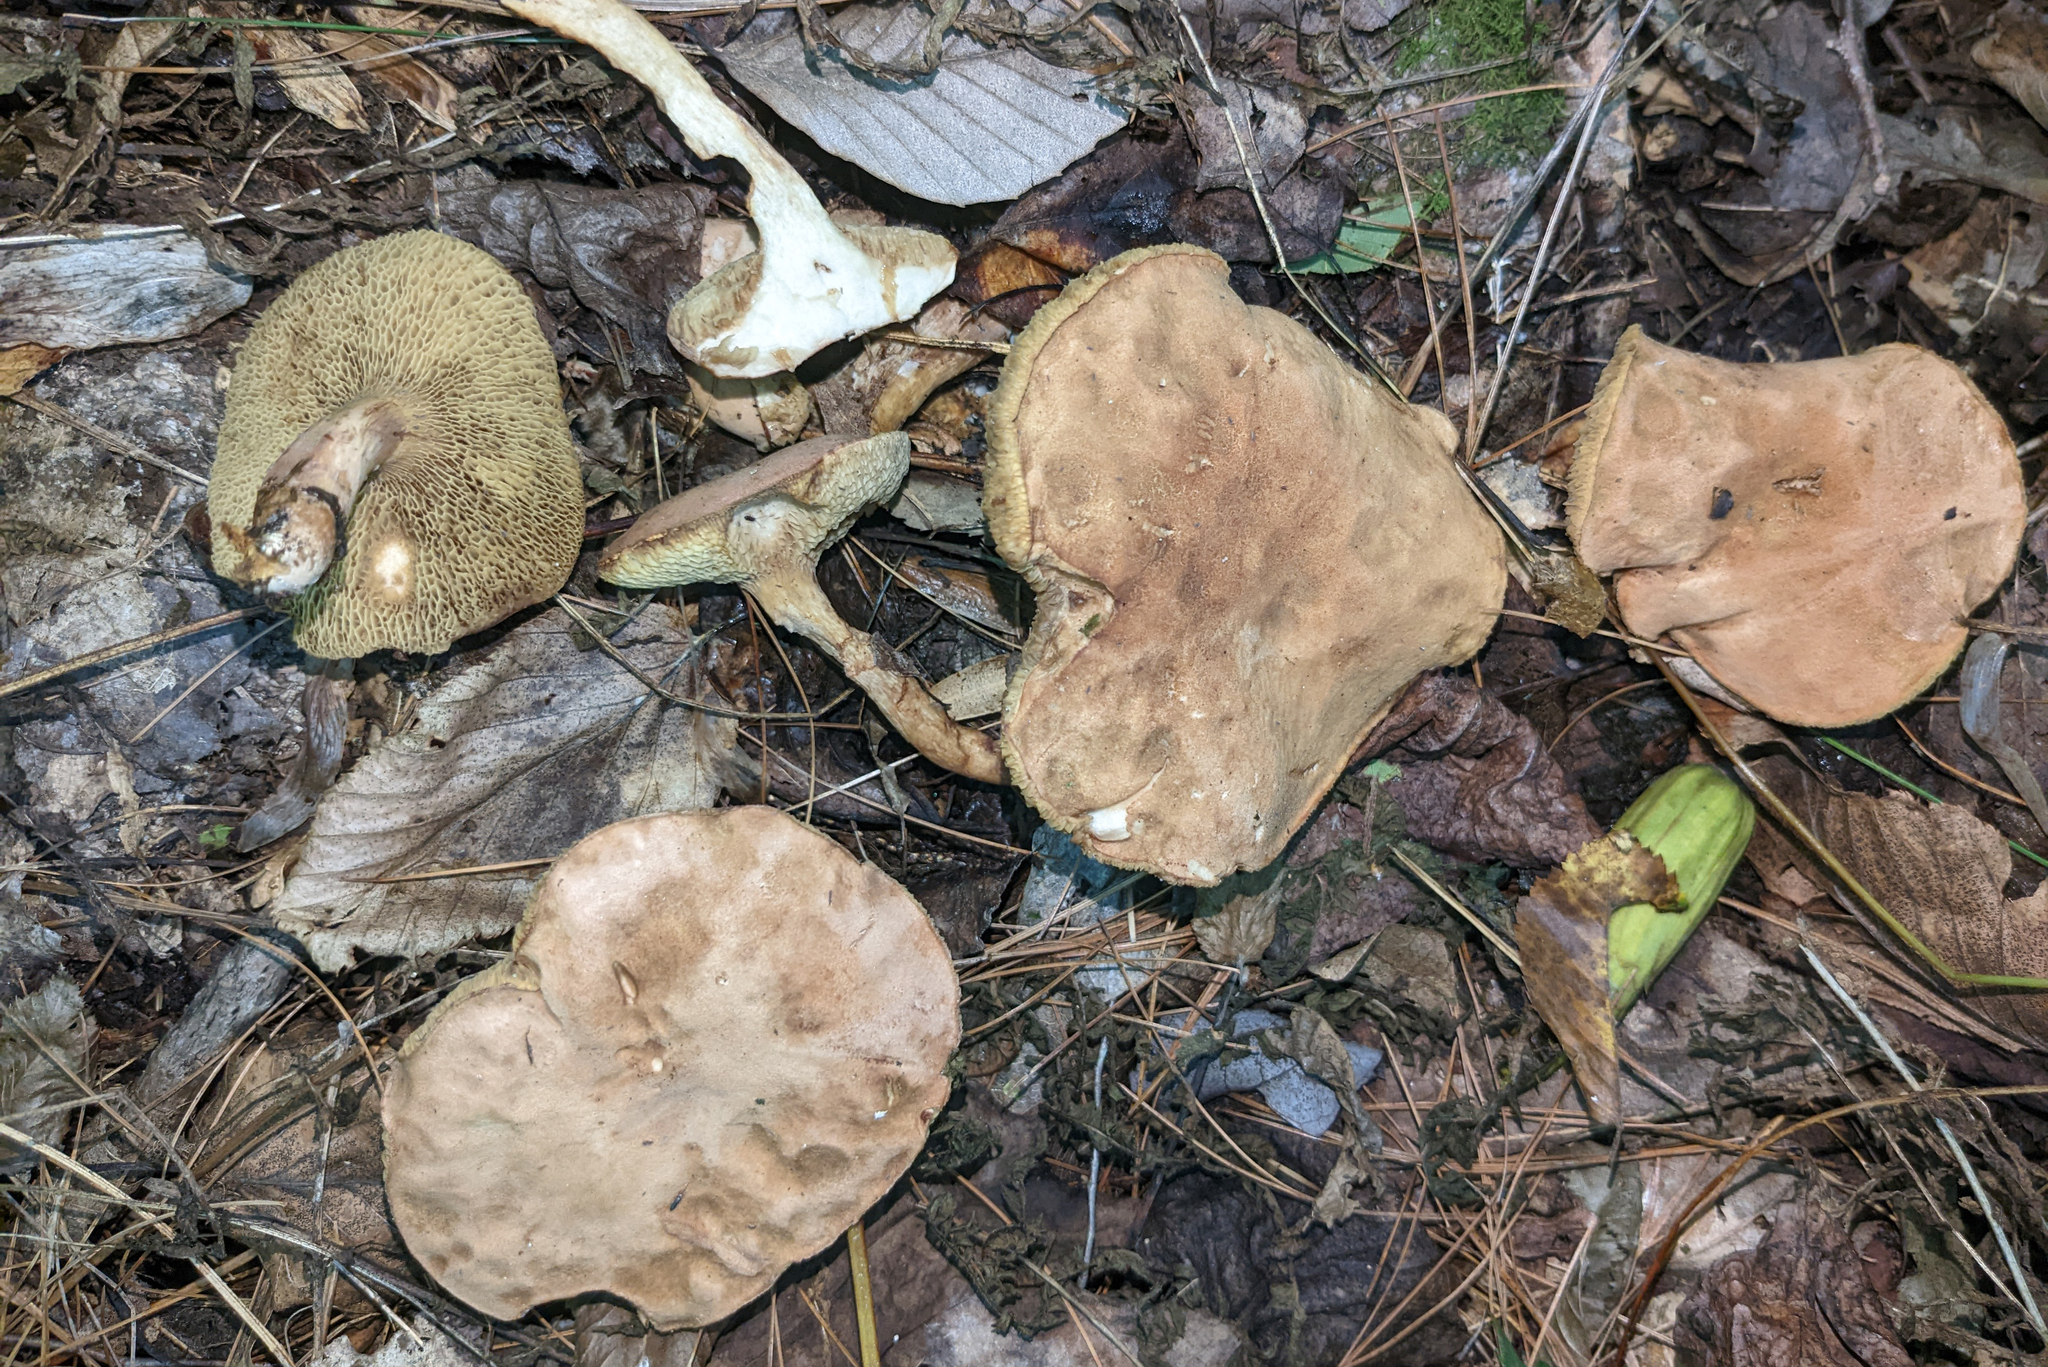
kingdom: Fungi
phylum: Basidiomycota
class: Agaricomycetes
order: Boletales
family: Boletaceae
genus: Bothia
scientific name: Bothia castanella
